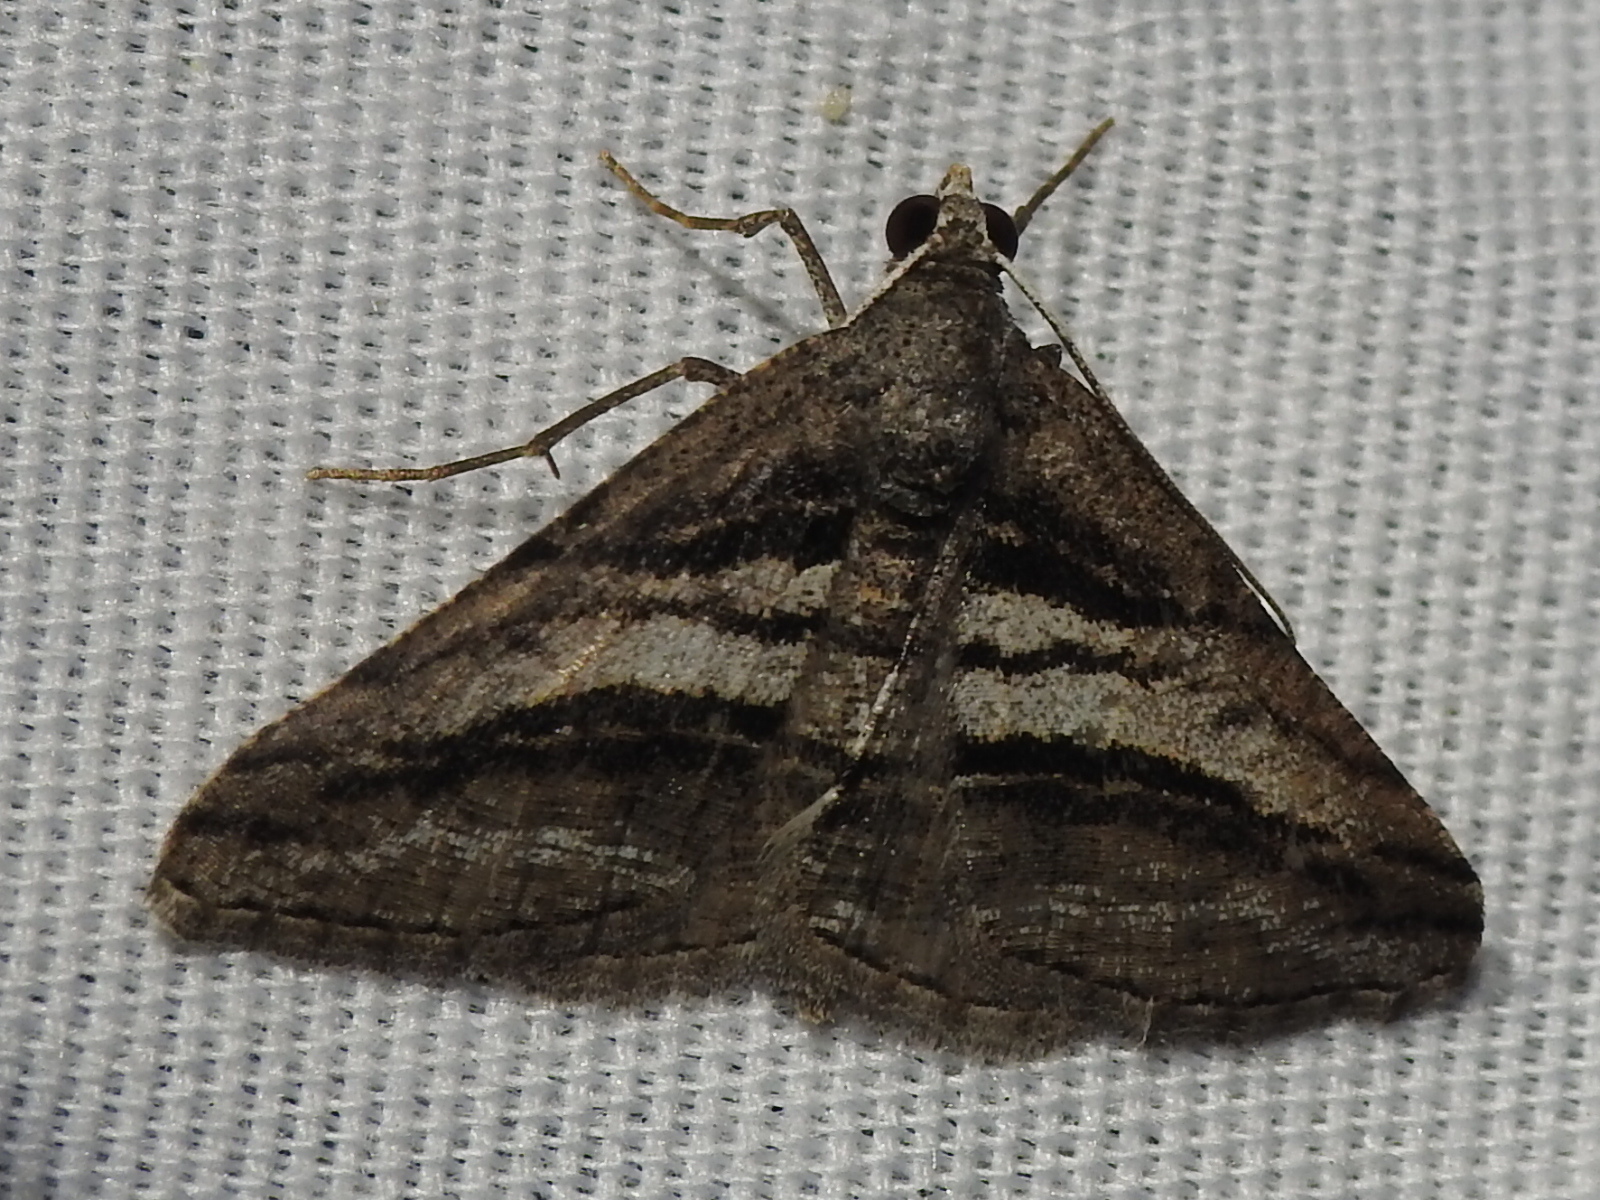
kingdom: Animalia
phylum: Arthropoda
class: Insecta
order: Lepidoptera
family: Geometridae
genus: Digrammia
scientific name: Digrammia atrofasciata
